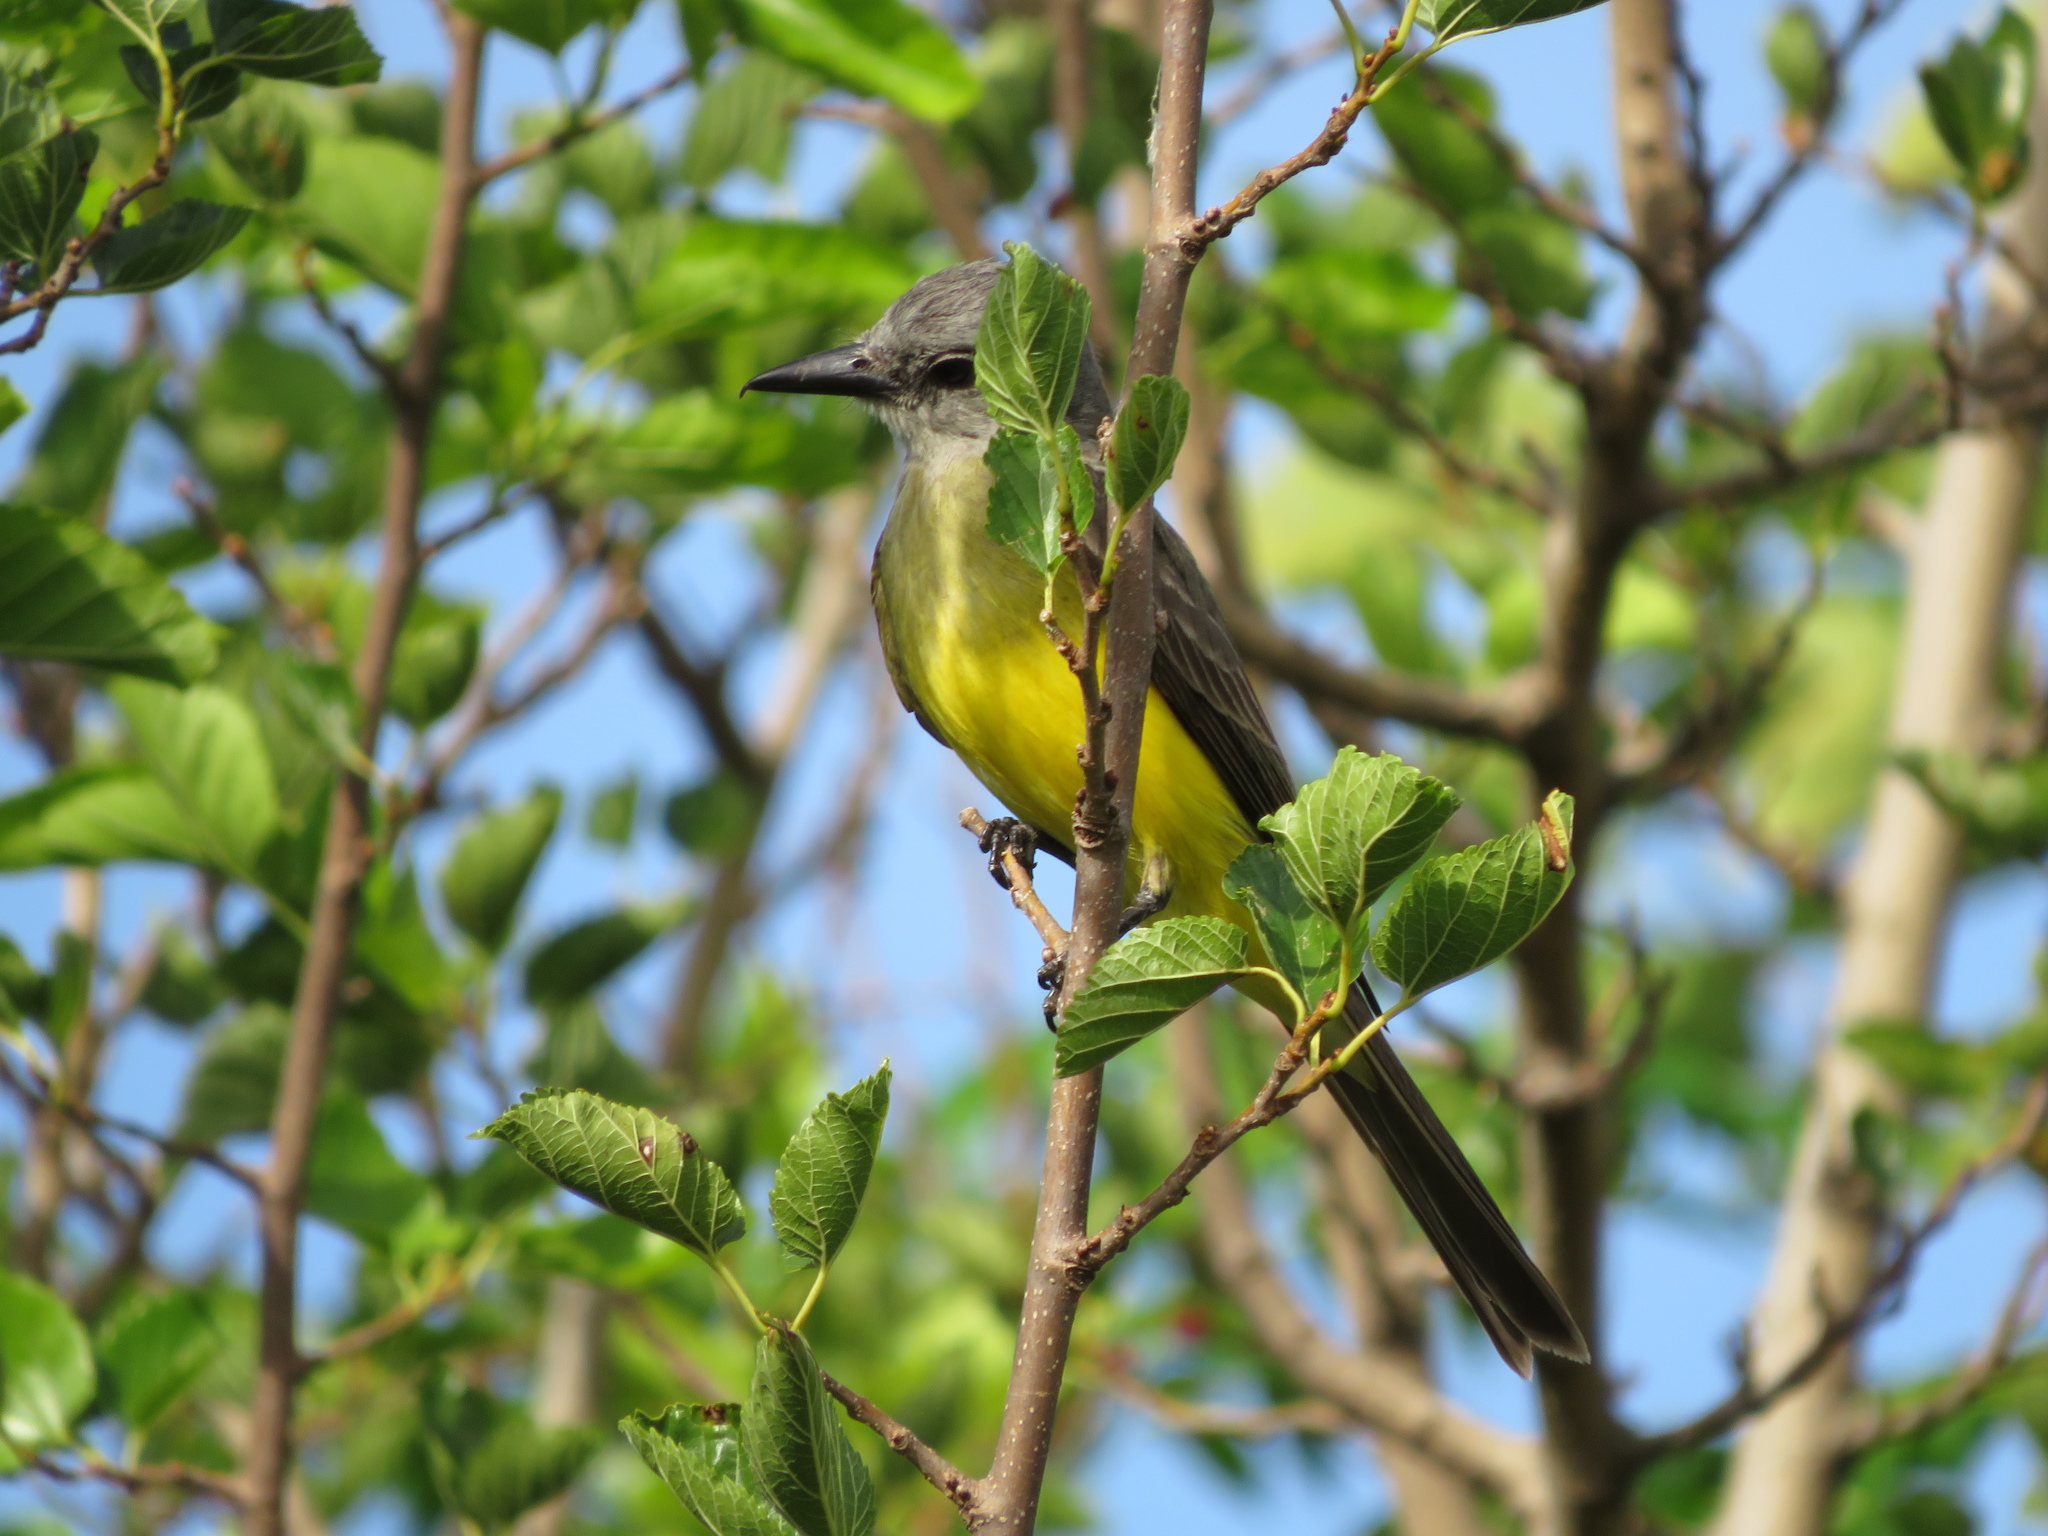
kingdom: Animalia
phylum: Chordata
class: Aves
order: Passeriformes
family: Tyrannidae
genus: Tyrannus
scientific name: Tyrannus melancholicus
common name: Tropical kingbird
